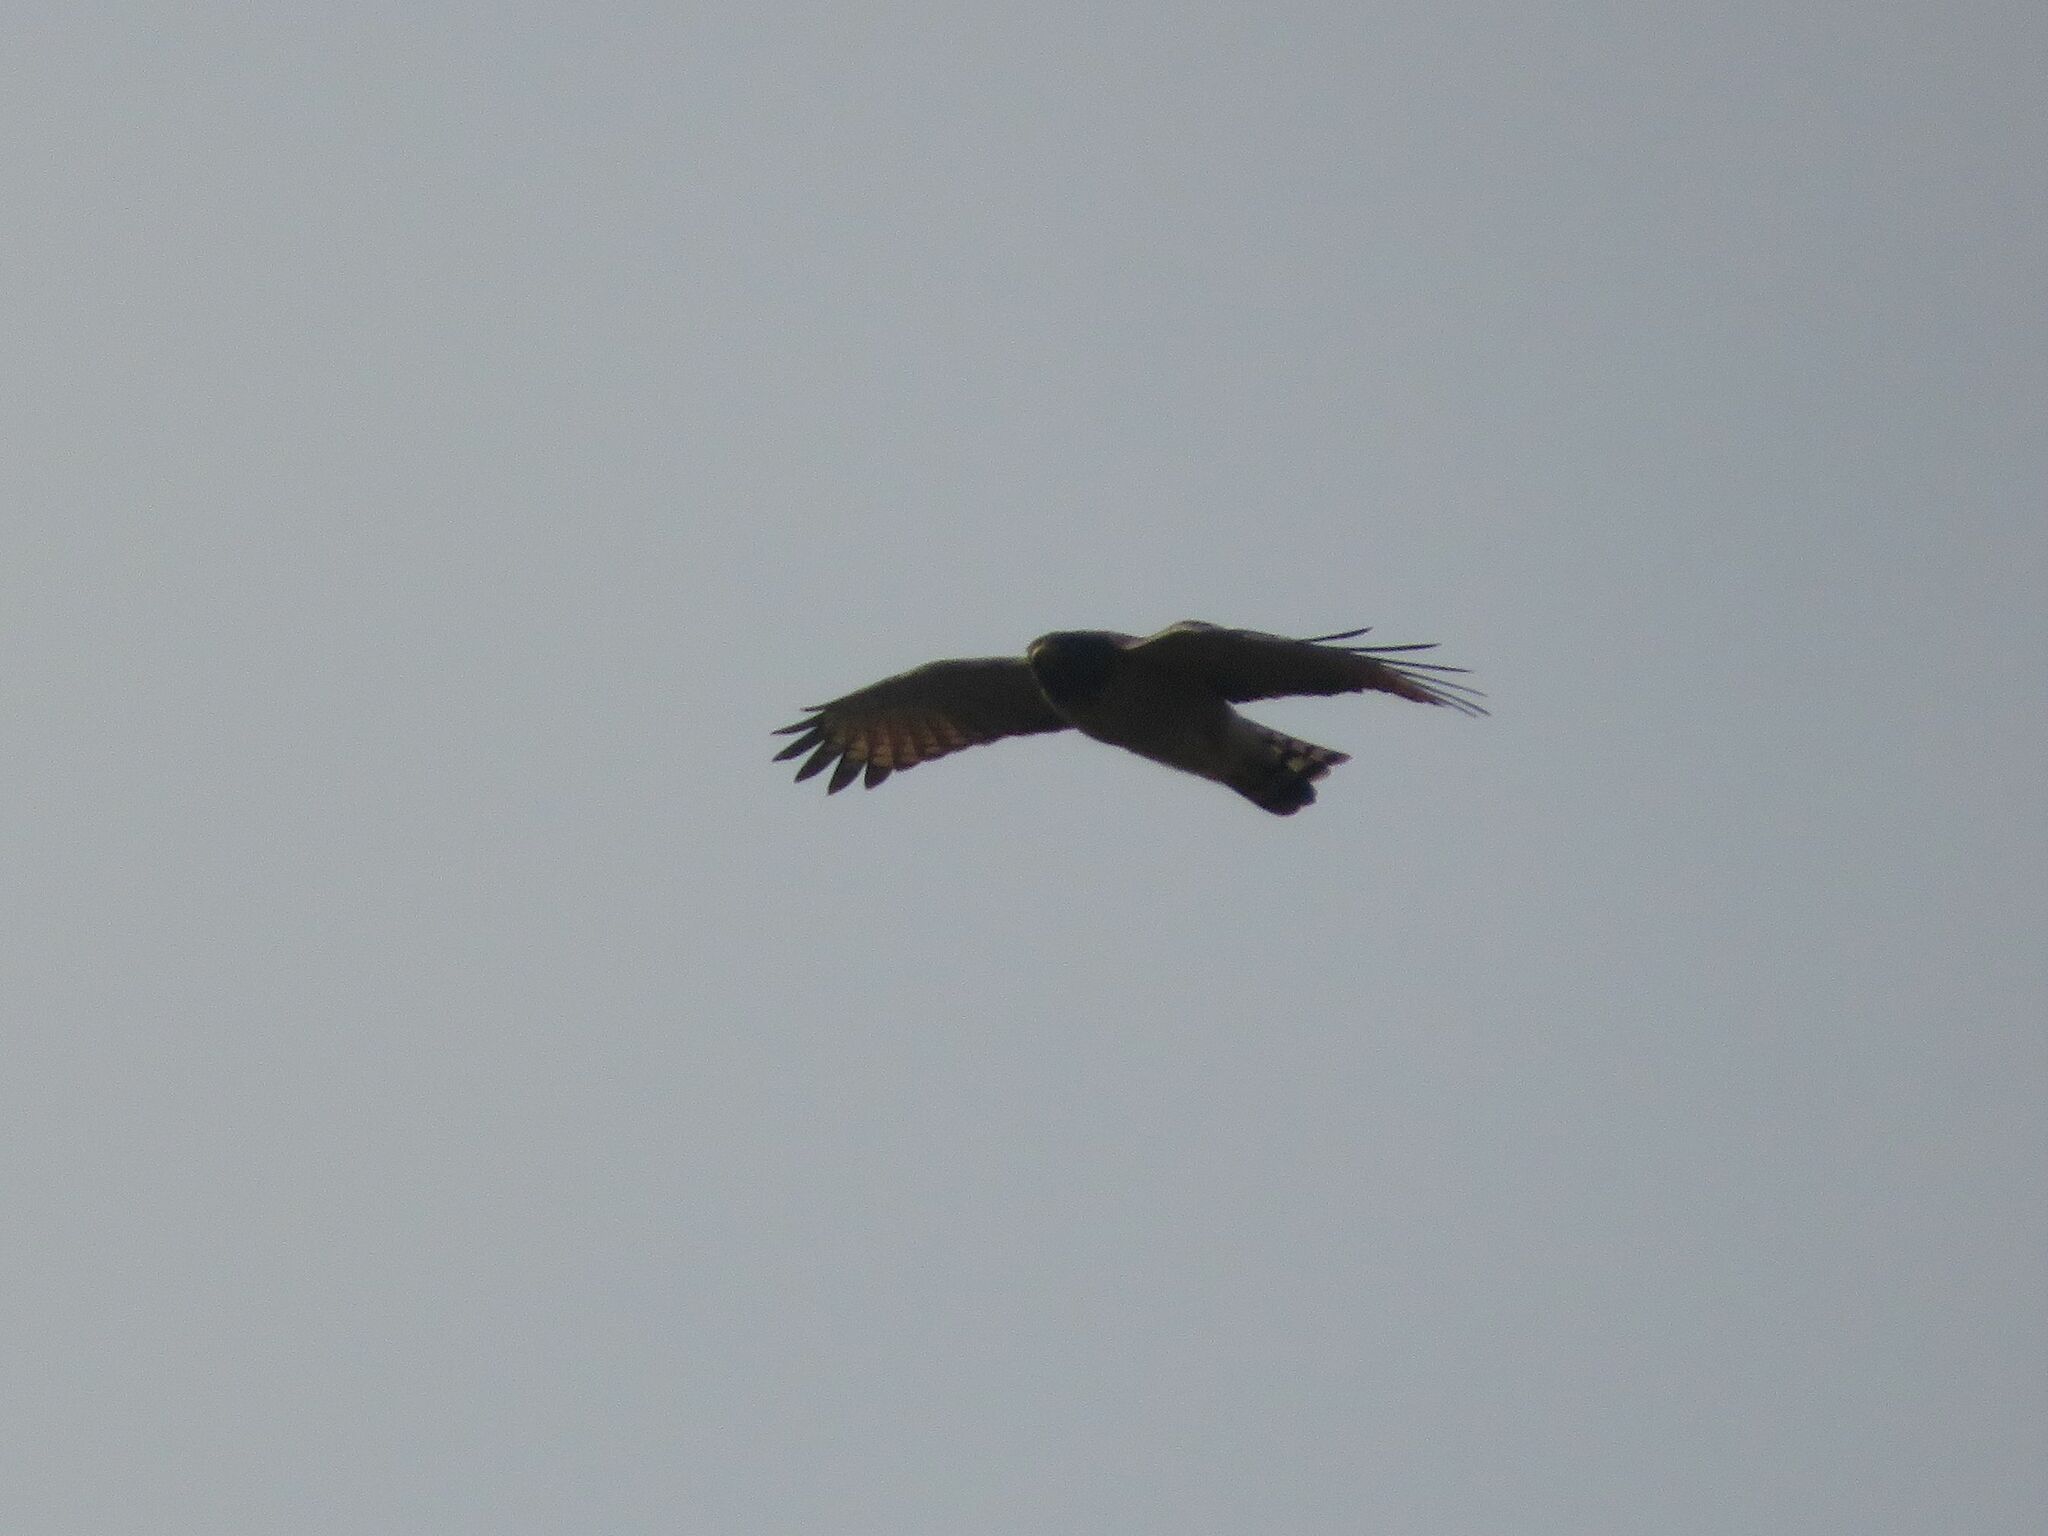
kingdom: Animalia
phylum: Chordata
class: Aves
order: Accipitriformes
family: Accipitridae
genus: Rupornis
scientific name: Rupornis magnirostris
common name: Roadside hawk
